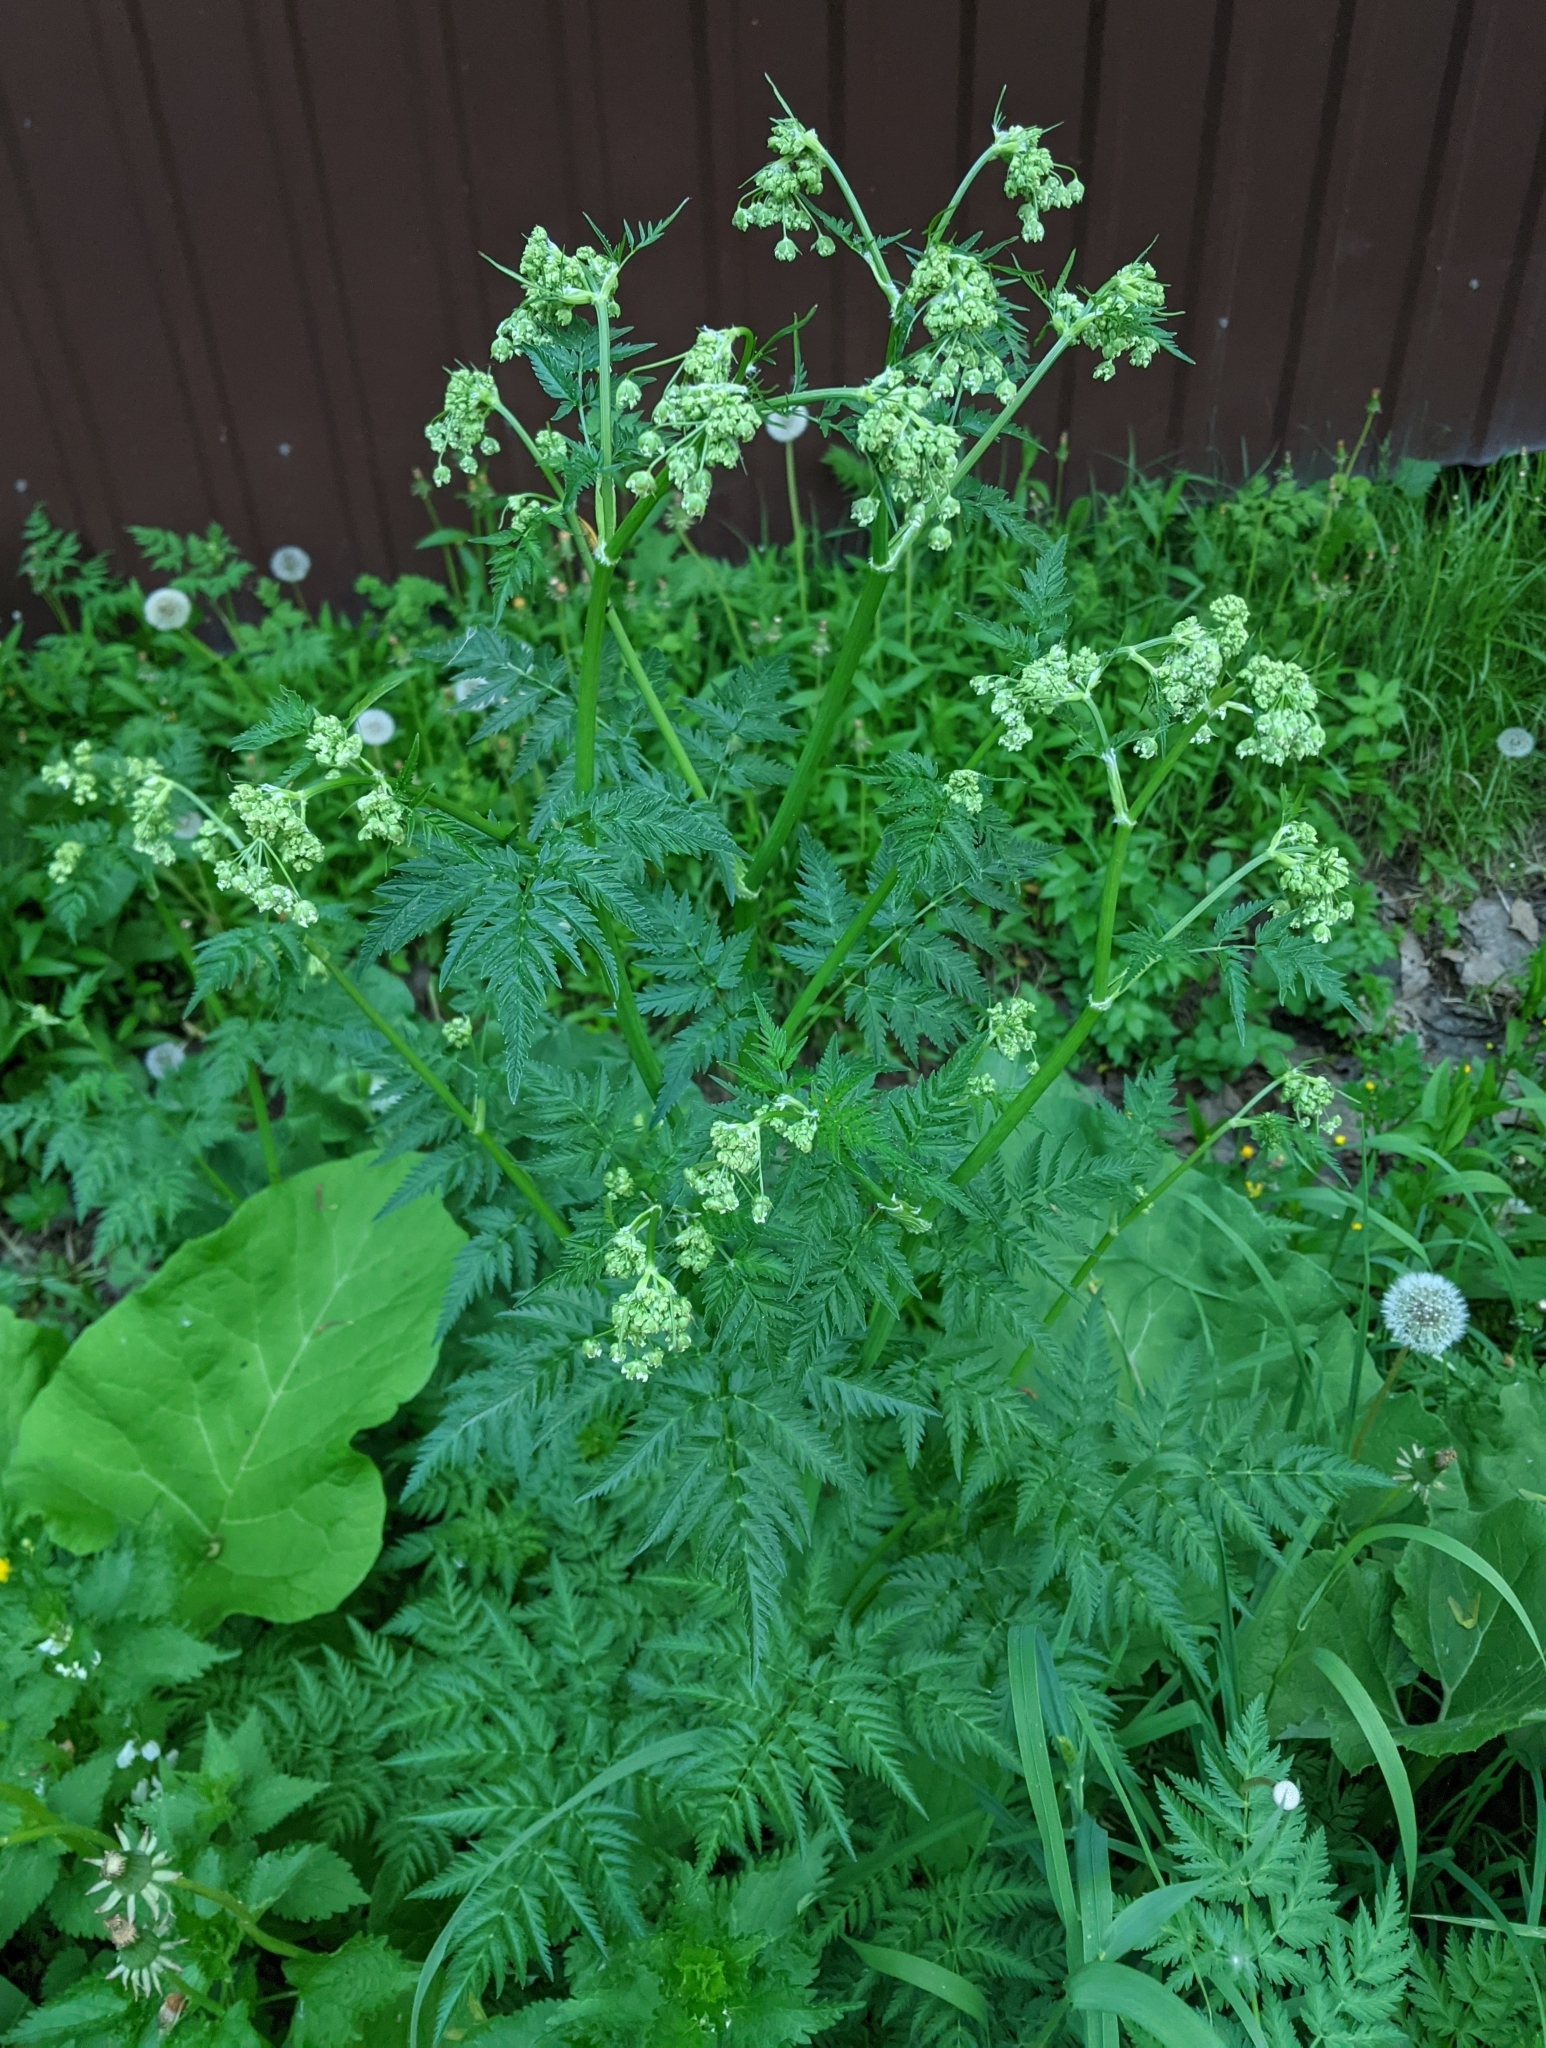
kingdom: Plantae
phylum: Tracheophyta
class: Magnoliopsida
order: Apiales
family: Apiaceae
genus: Anthriscus
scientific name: Anthriscus sylvestris
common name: Cow parsley
